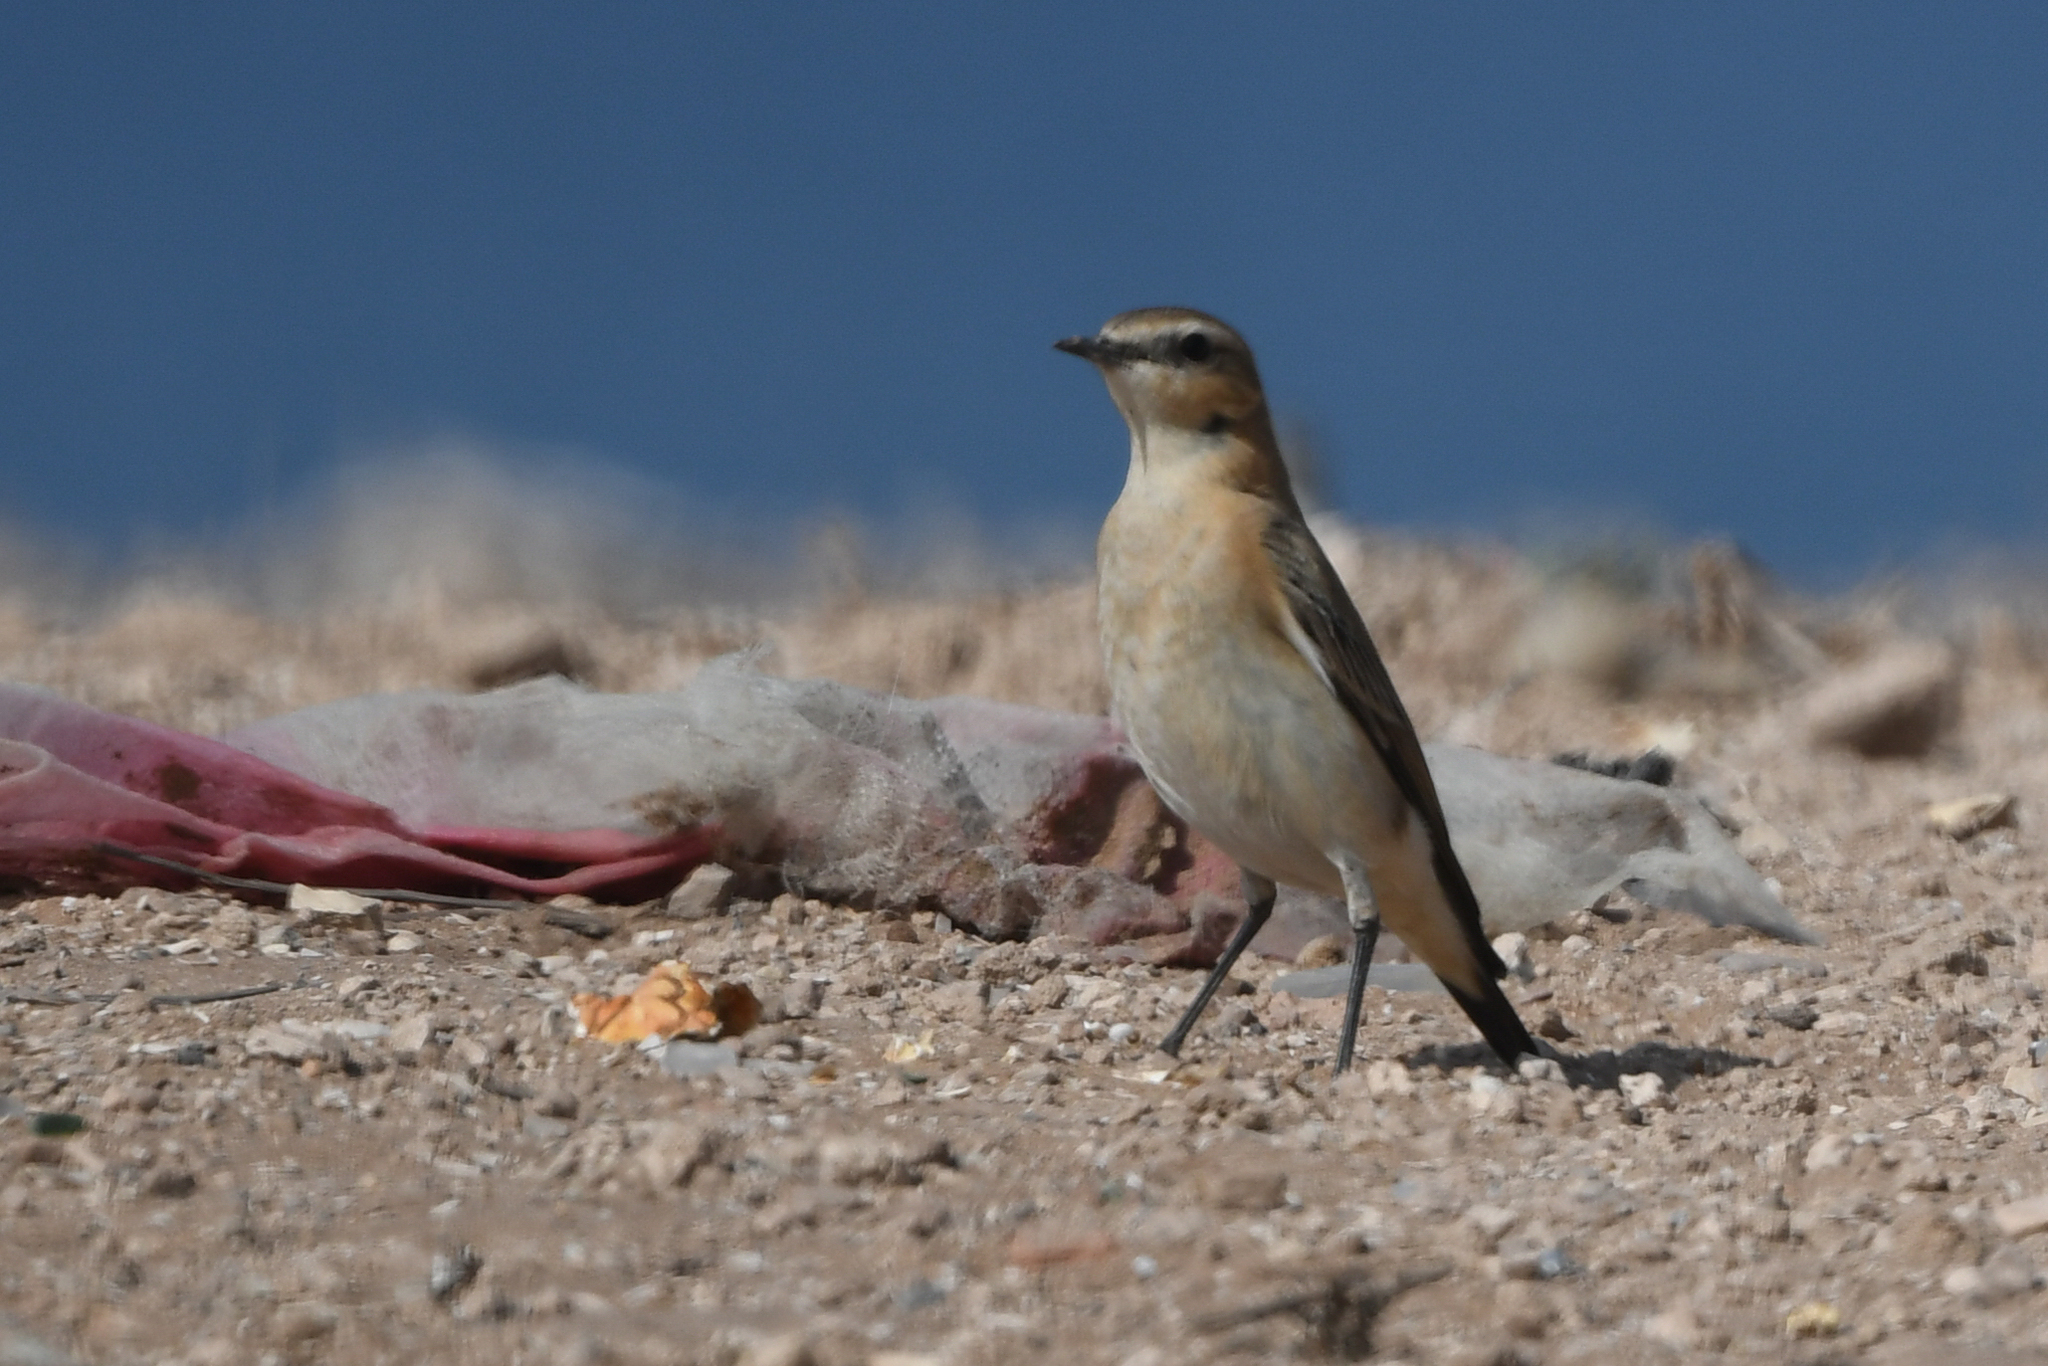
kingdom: Animalia
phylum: Chordata
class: Aves
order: Passeriformes
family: Muscicapidae
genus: Oenanthe
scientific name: Oenanthe oenanthe
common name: Northern wheatear
